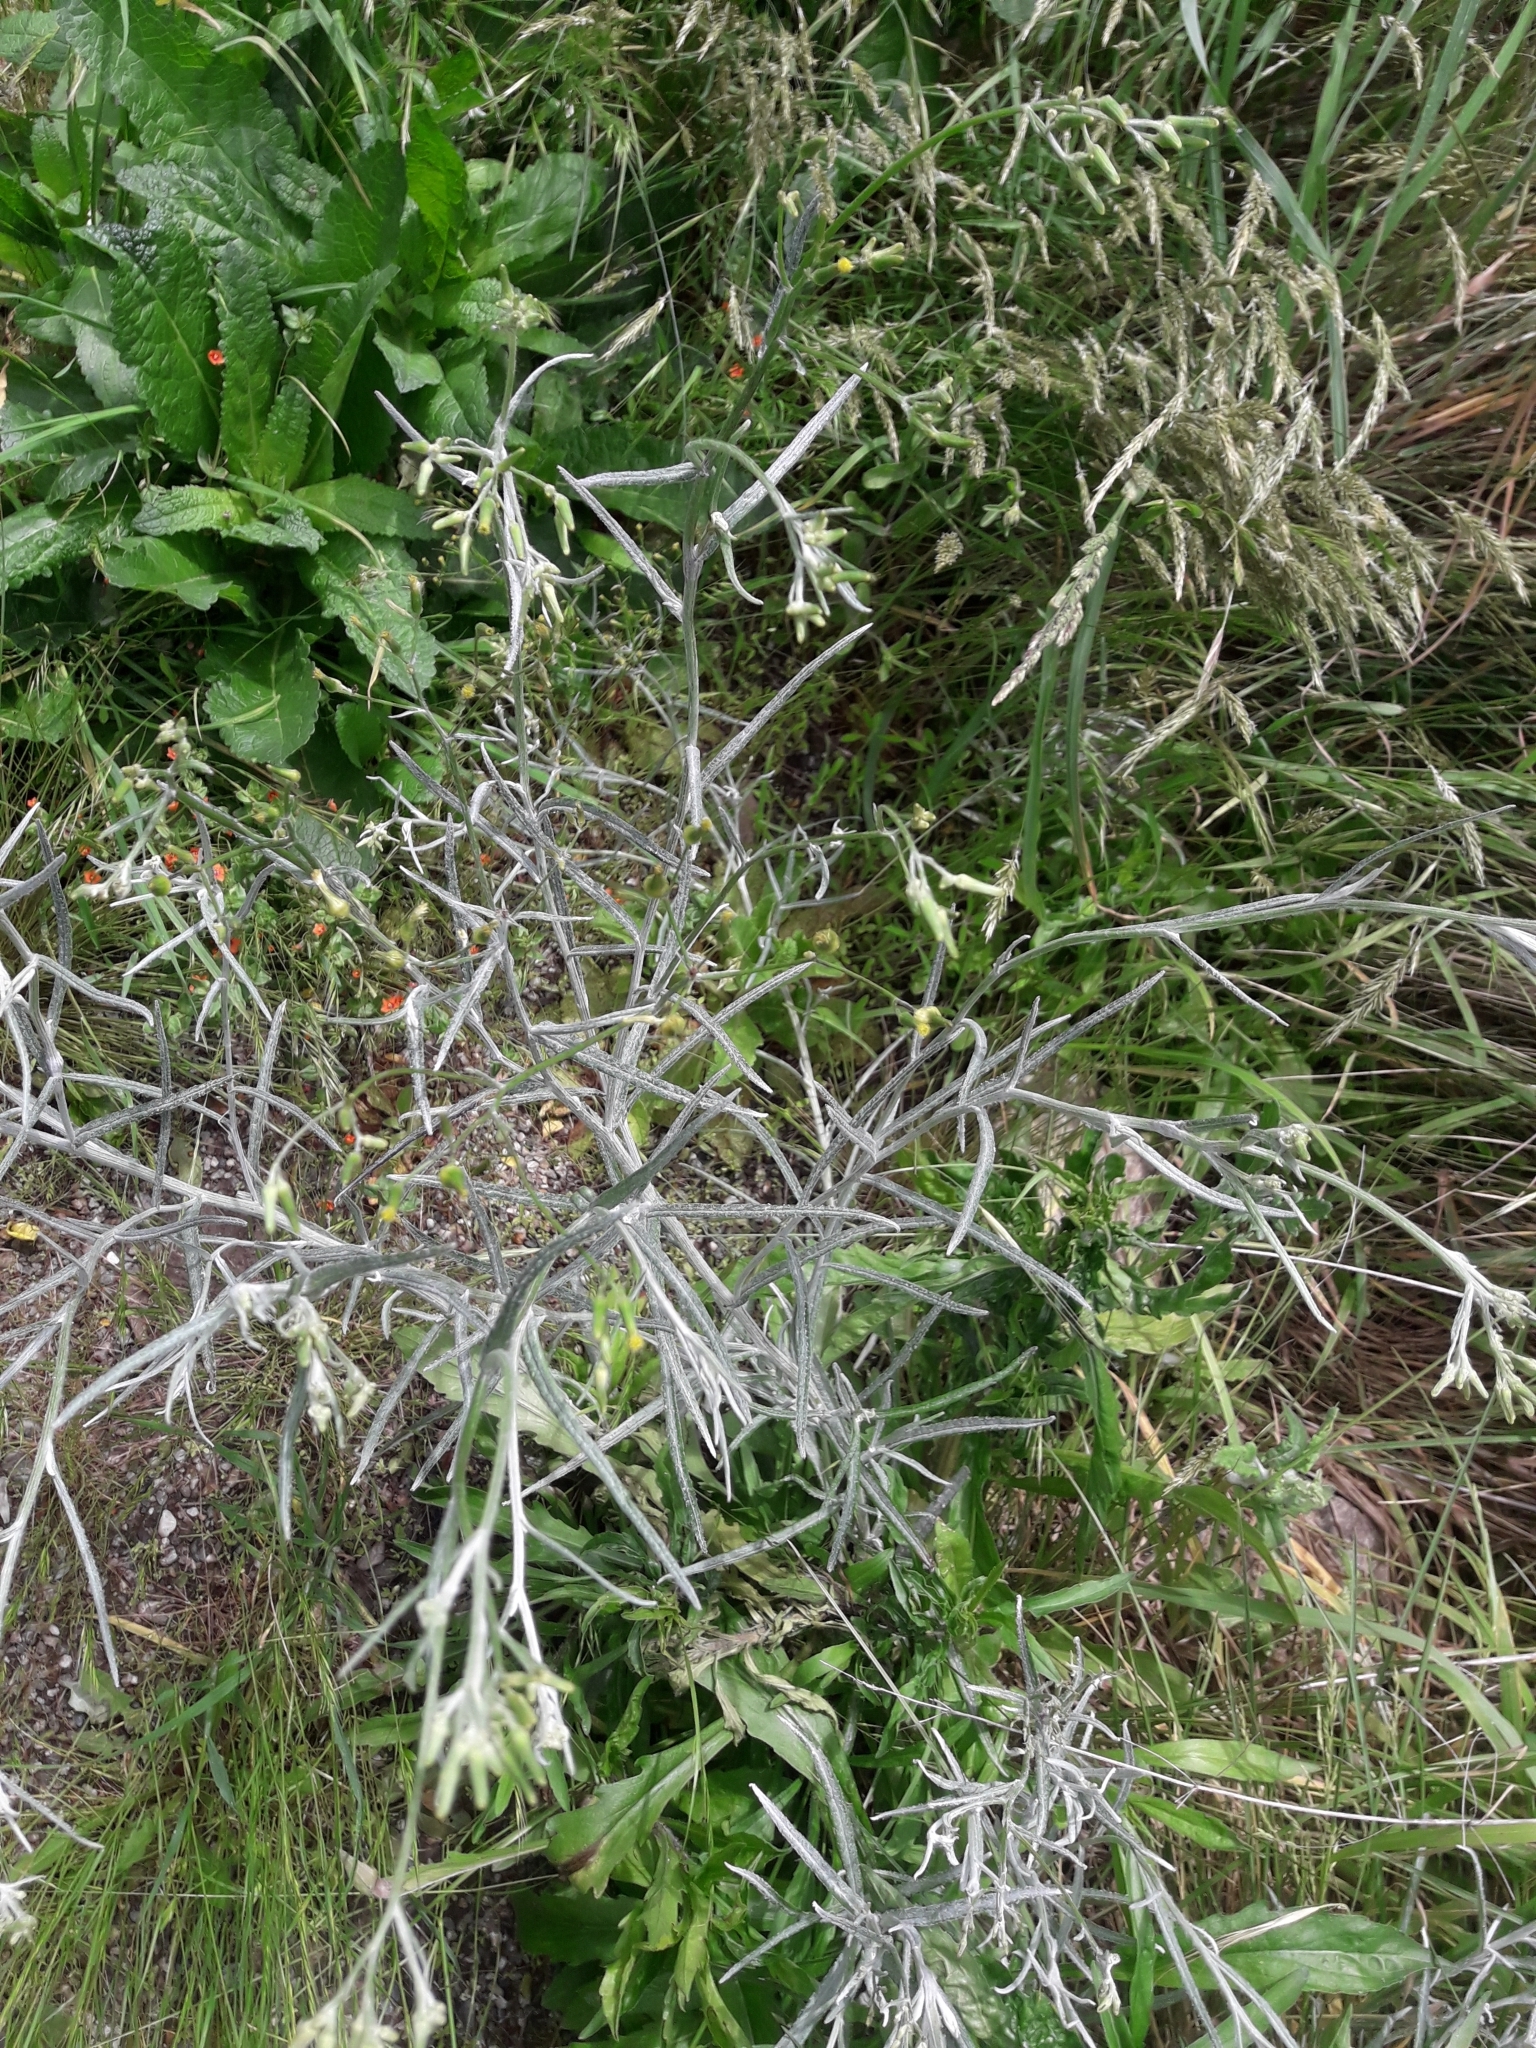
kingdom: Plantae
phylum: Tracheophyta
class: Magnoliopsida
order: Asterales
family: Asteraceae
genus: Senecio
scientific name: Senecio quadridentatus
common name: Cotton fireweed
